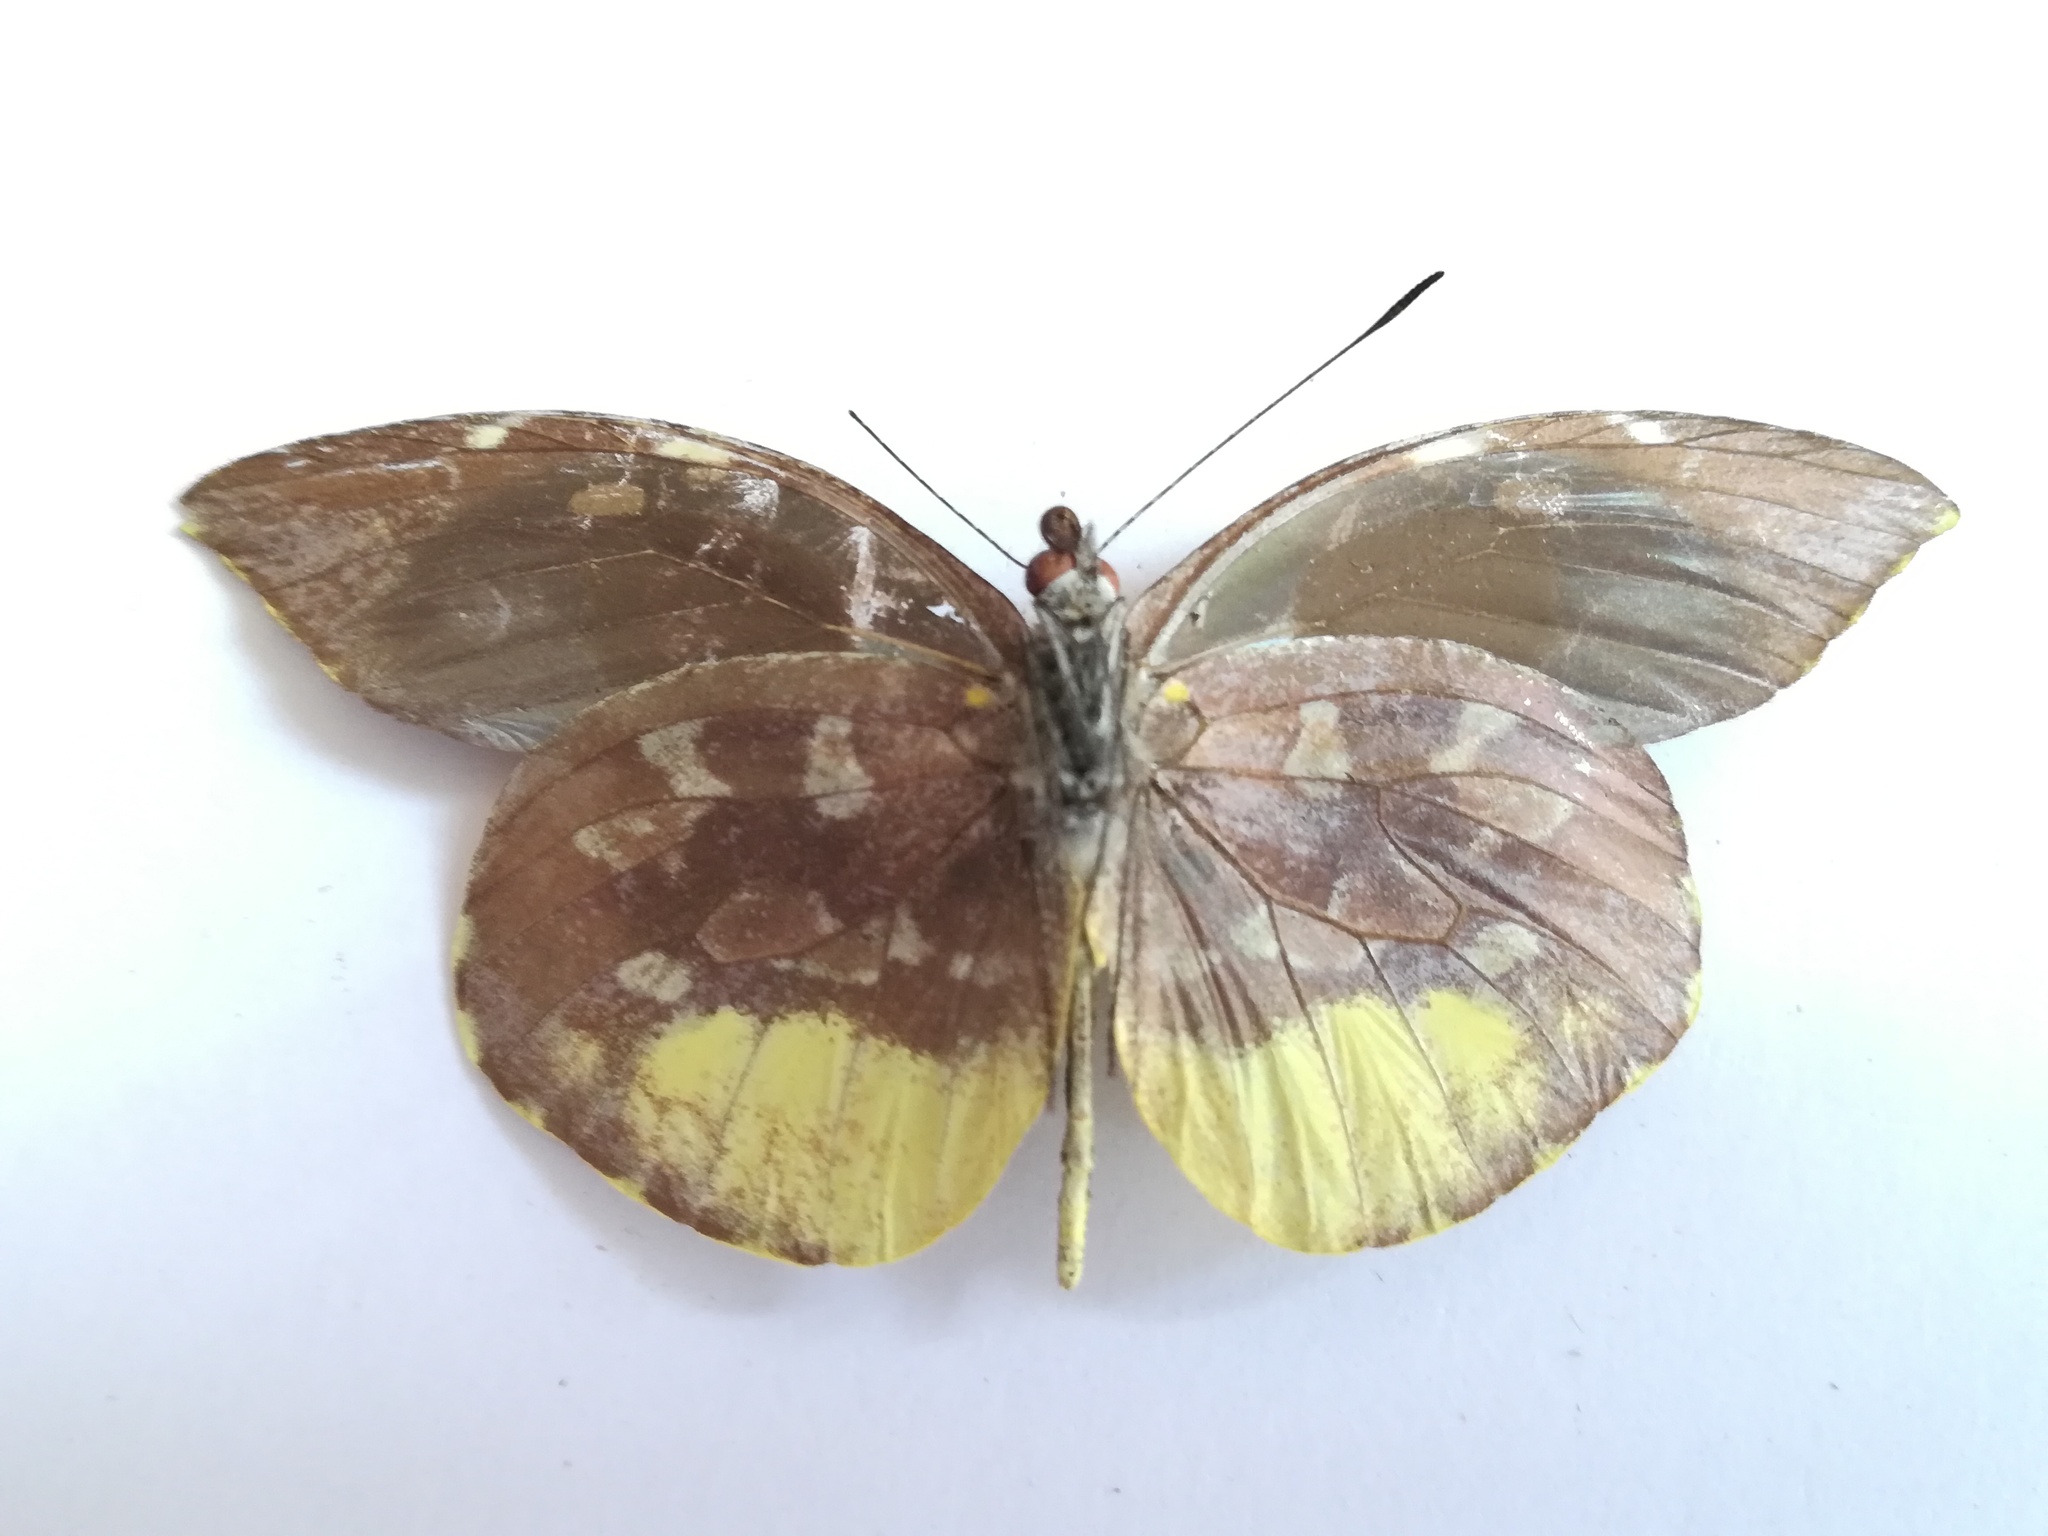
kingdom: Animalia
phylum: Arthropoda
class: Insecta
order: Lepidoptera
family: Pieridae
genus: Lieinix
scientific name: Lieinix nemesis
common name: Frosted mimic-white
